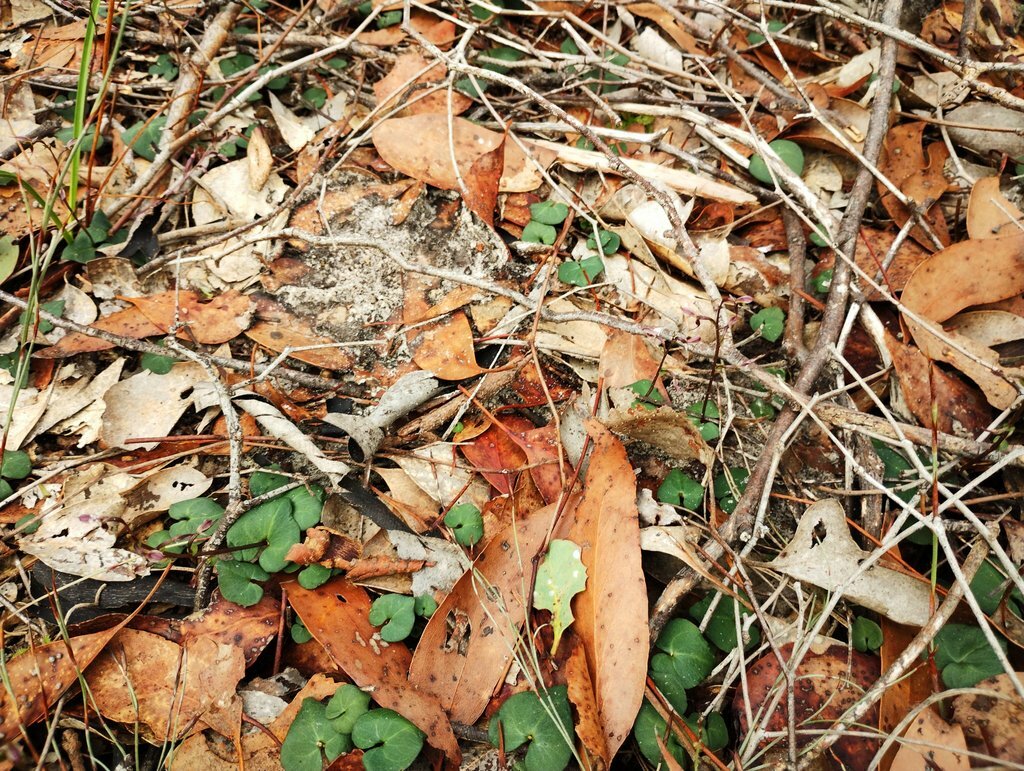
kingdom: Plantae
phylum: Tracheophyta
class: Liliopsida
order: Asparagales
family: Orchidaceae
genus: Acianthus
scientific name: Acianthus pusillus
